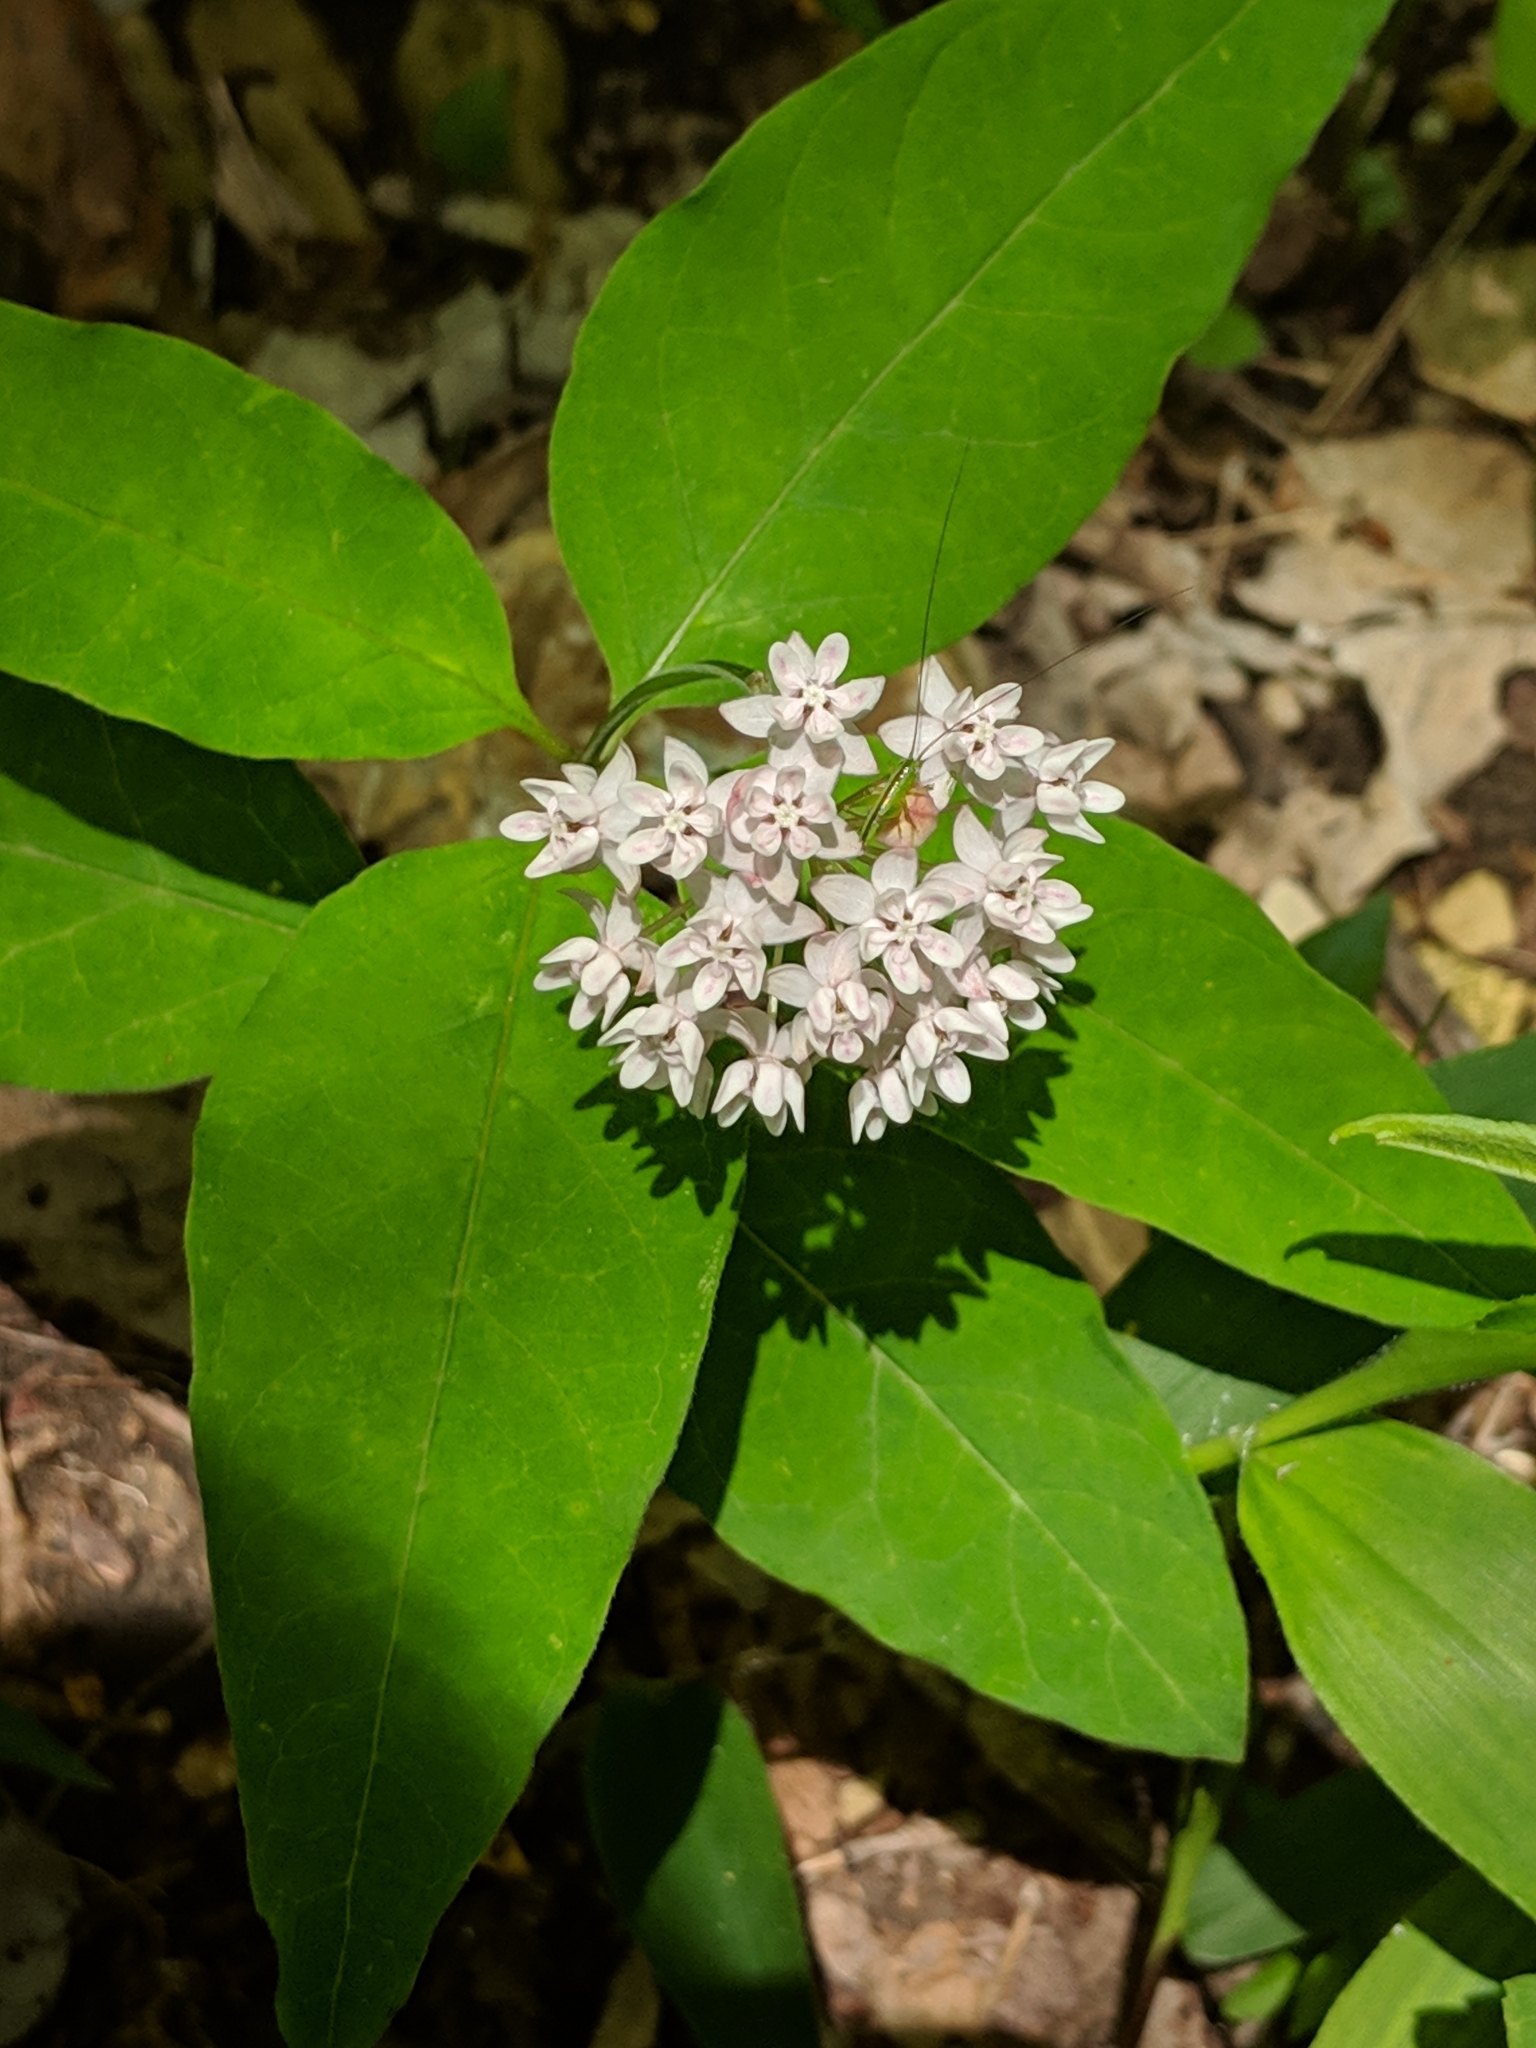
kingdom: Plantae
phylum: Tracheophyta
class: Magnoliopsida
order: Gentianales
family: Apocynaceae
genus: Asclepias
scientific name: Asclepias quadrifolia
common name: Whorled milkweed
